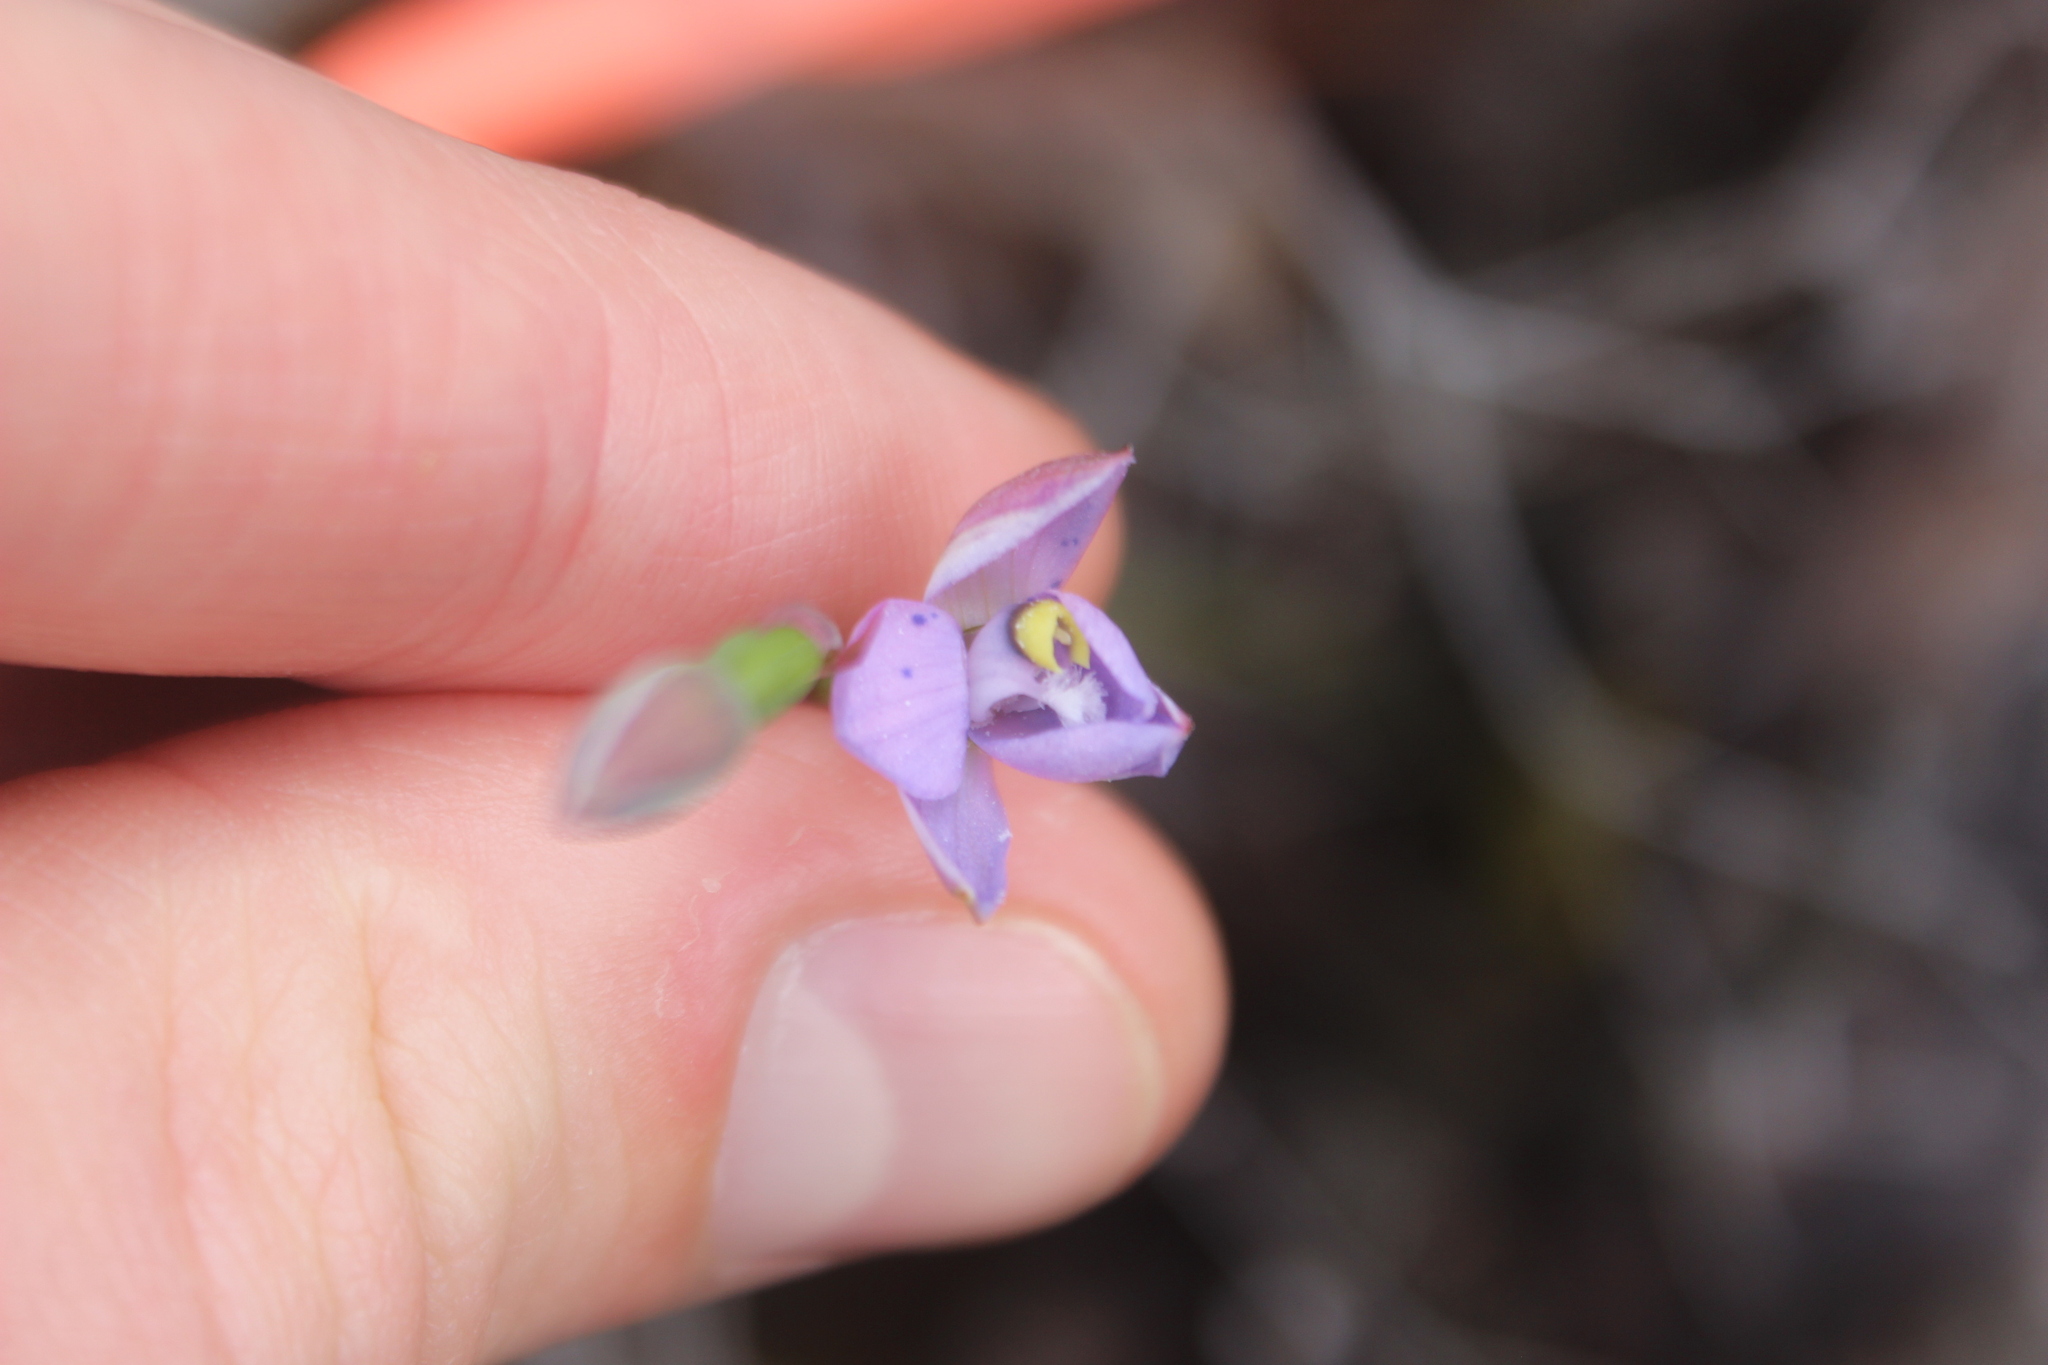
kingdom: Plantae
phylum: Tracheophyta
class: Liliopsida
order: Asparagales
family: Orchidaceae
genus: Thelymitra
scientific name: Thelymitra nervosa
